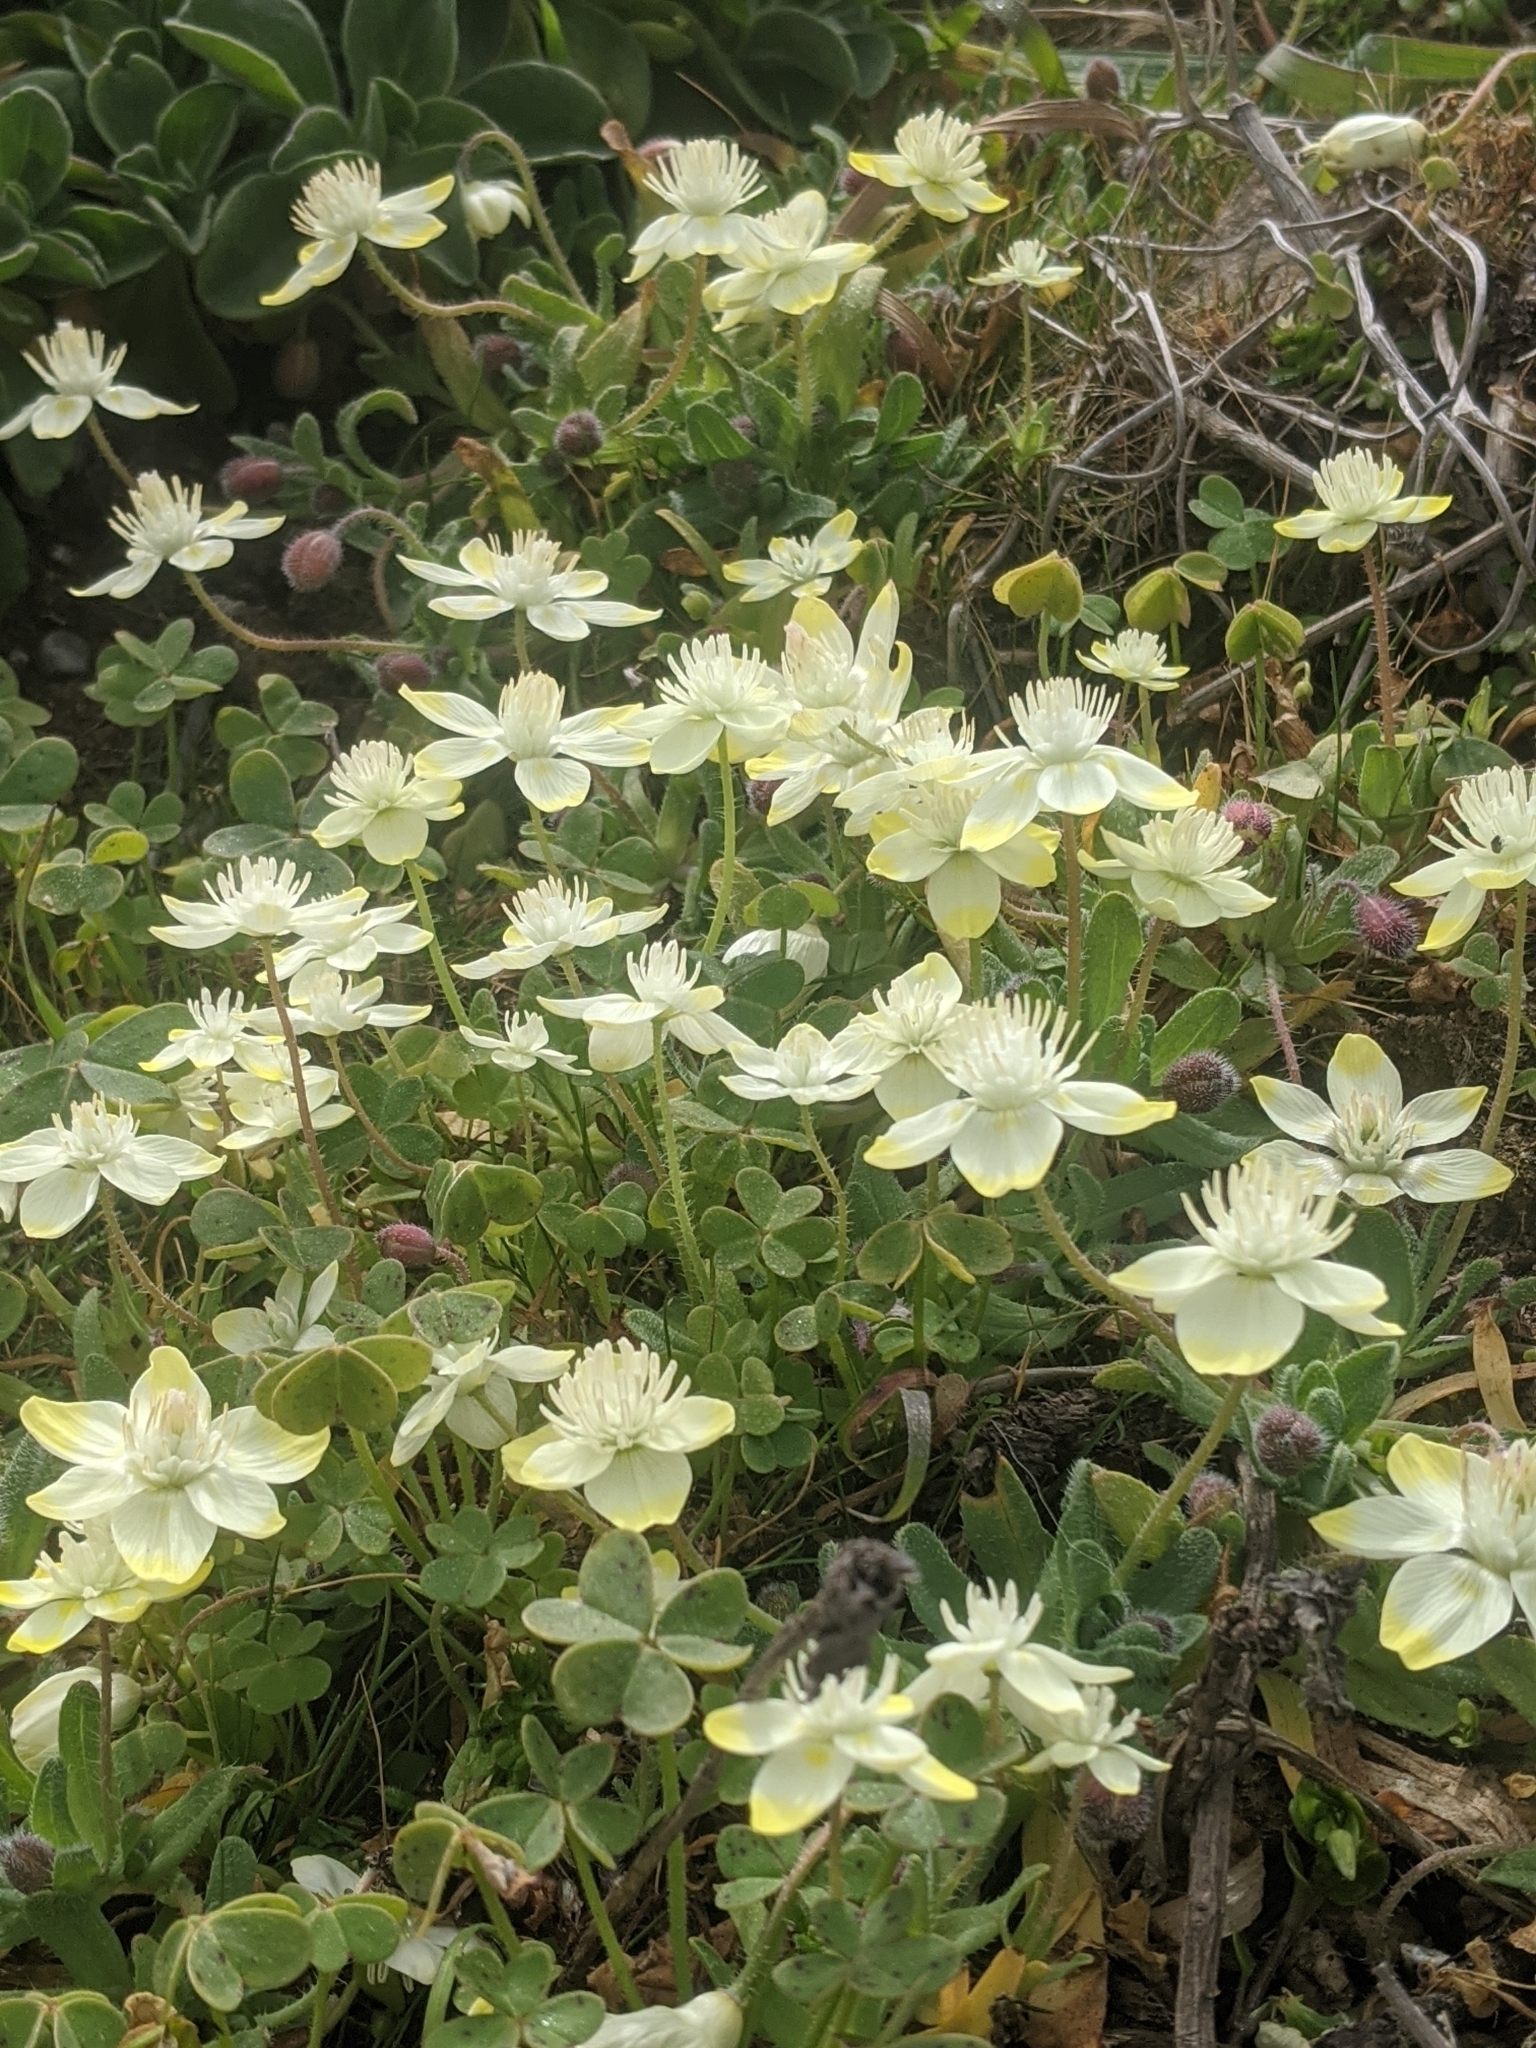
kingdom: Plantae
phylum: Tracheophyta
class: Magnoliopsida
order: Ranunculales
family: Papaveraceae
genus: Platystemon
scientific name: Platystemon californicus
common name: Cream-cups
